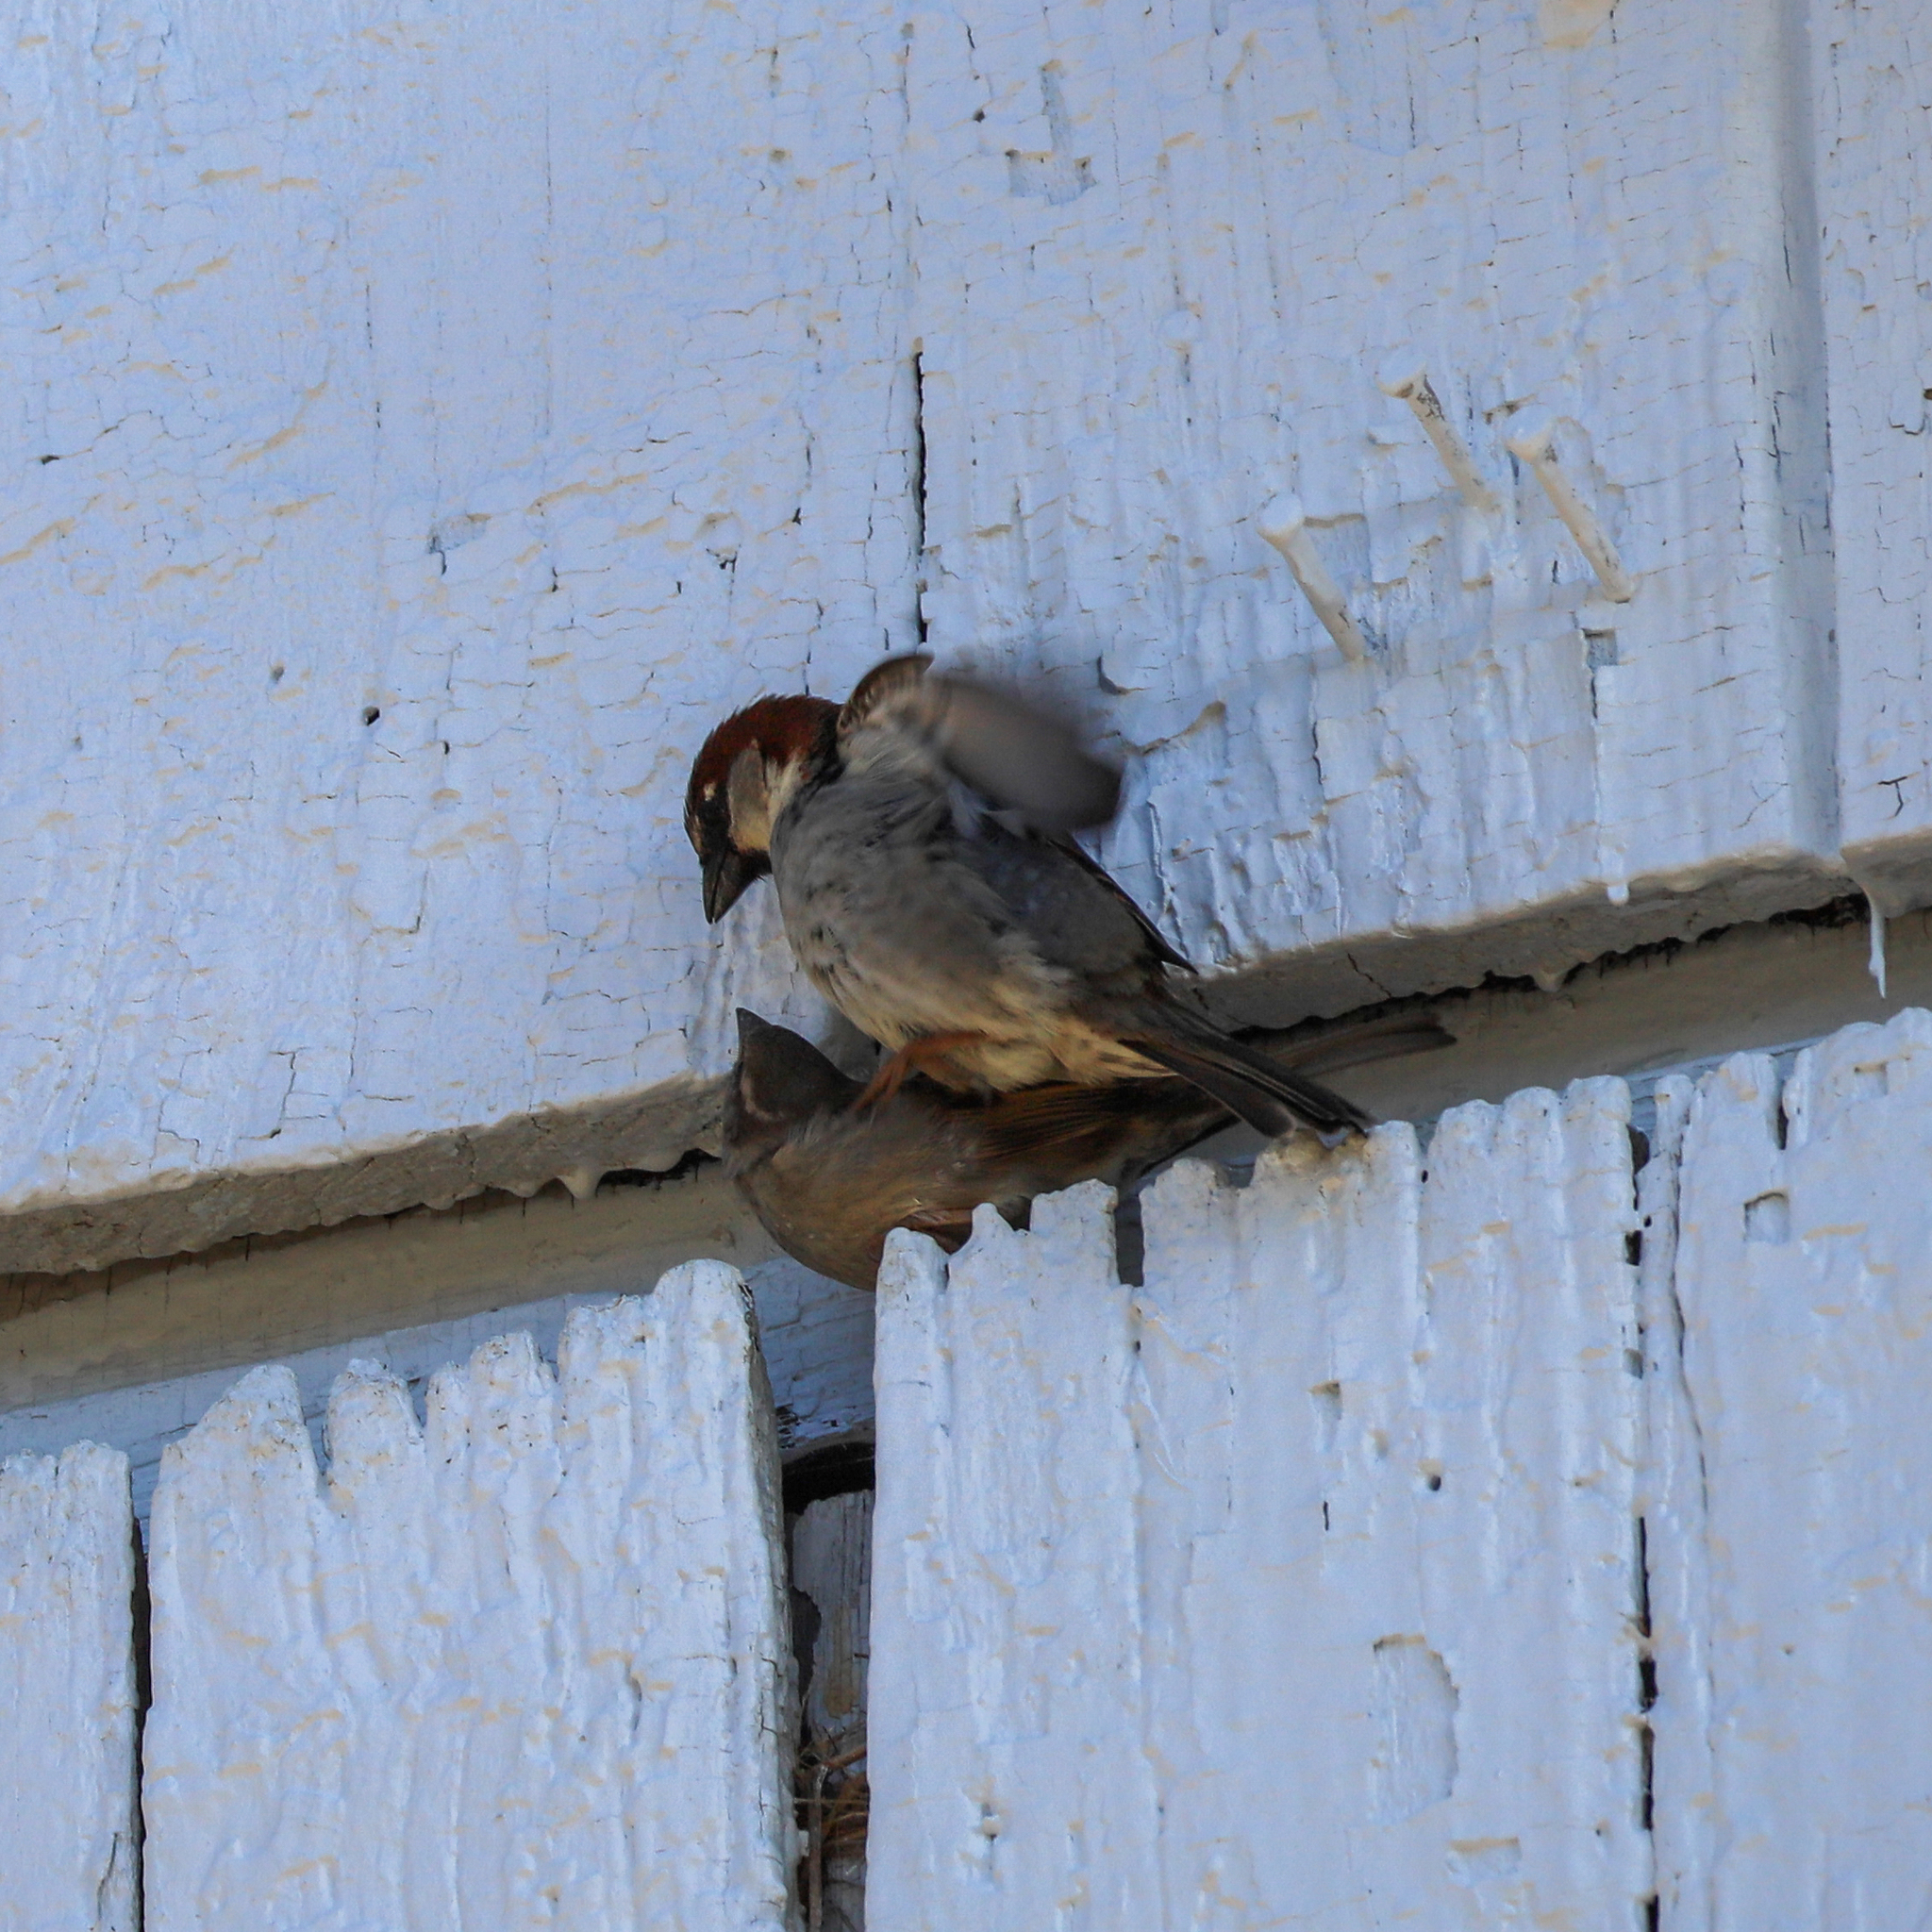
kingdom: Animalia
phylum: Chordata
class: Aves
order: Passeriformes
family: Passeridae
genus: Passer
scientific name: Passer domesticus
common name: House sparrow
